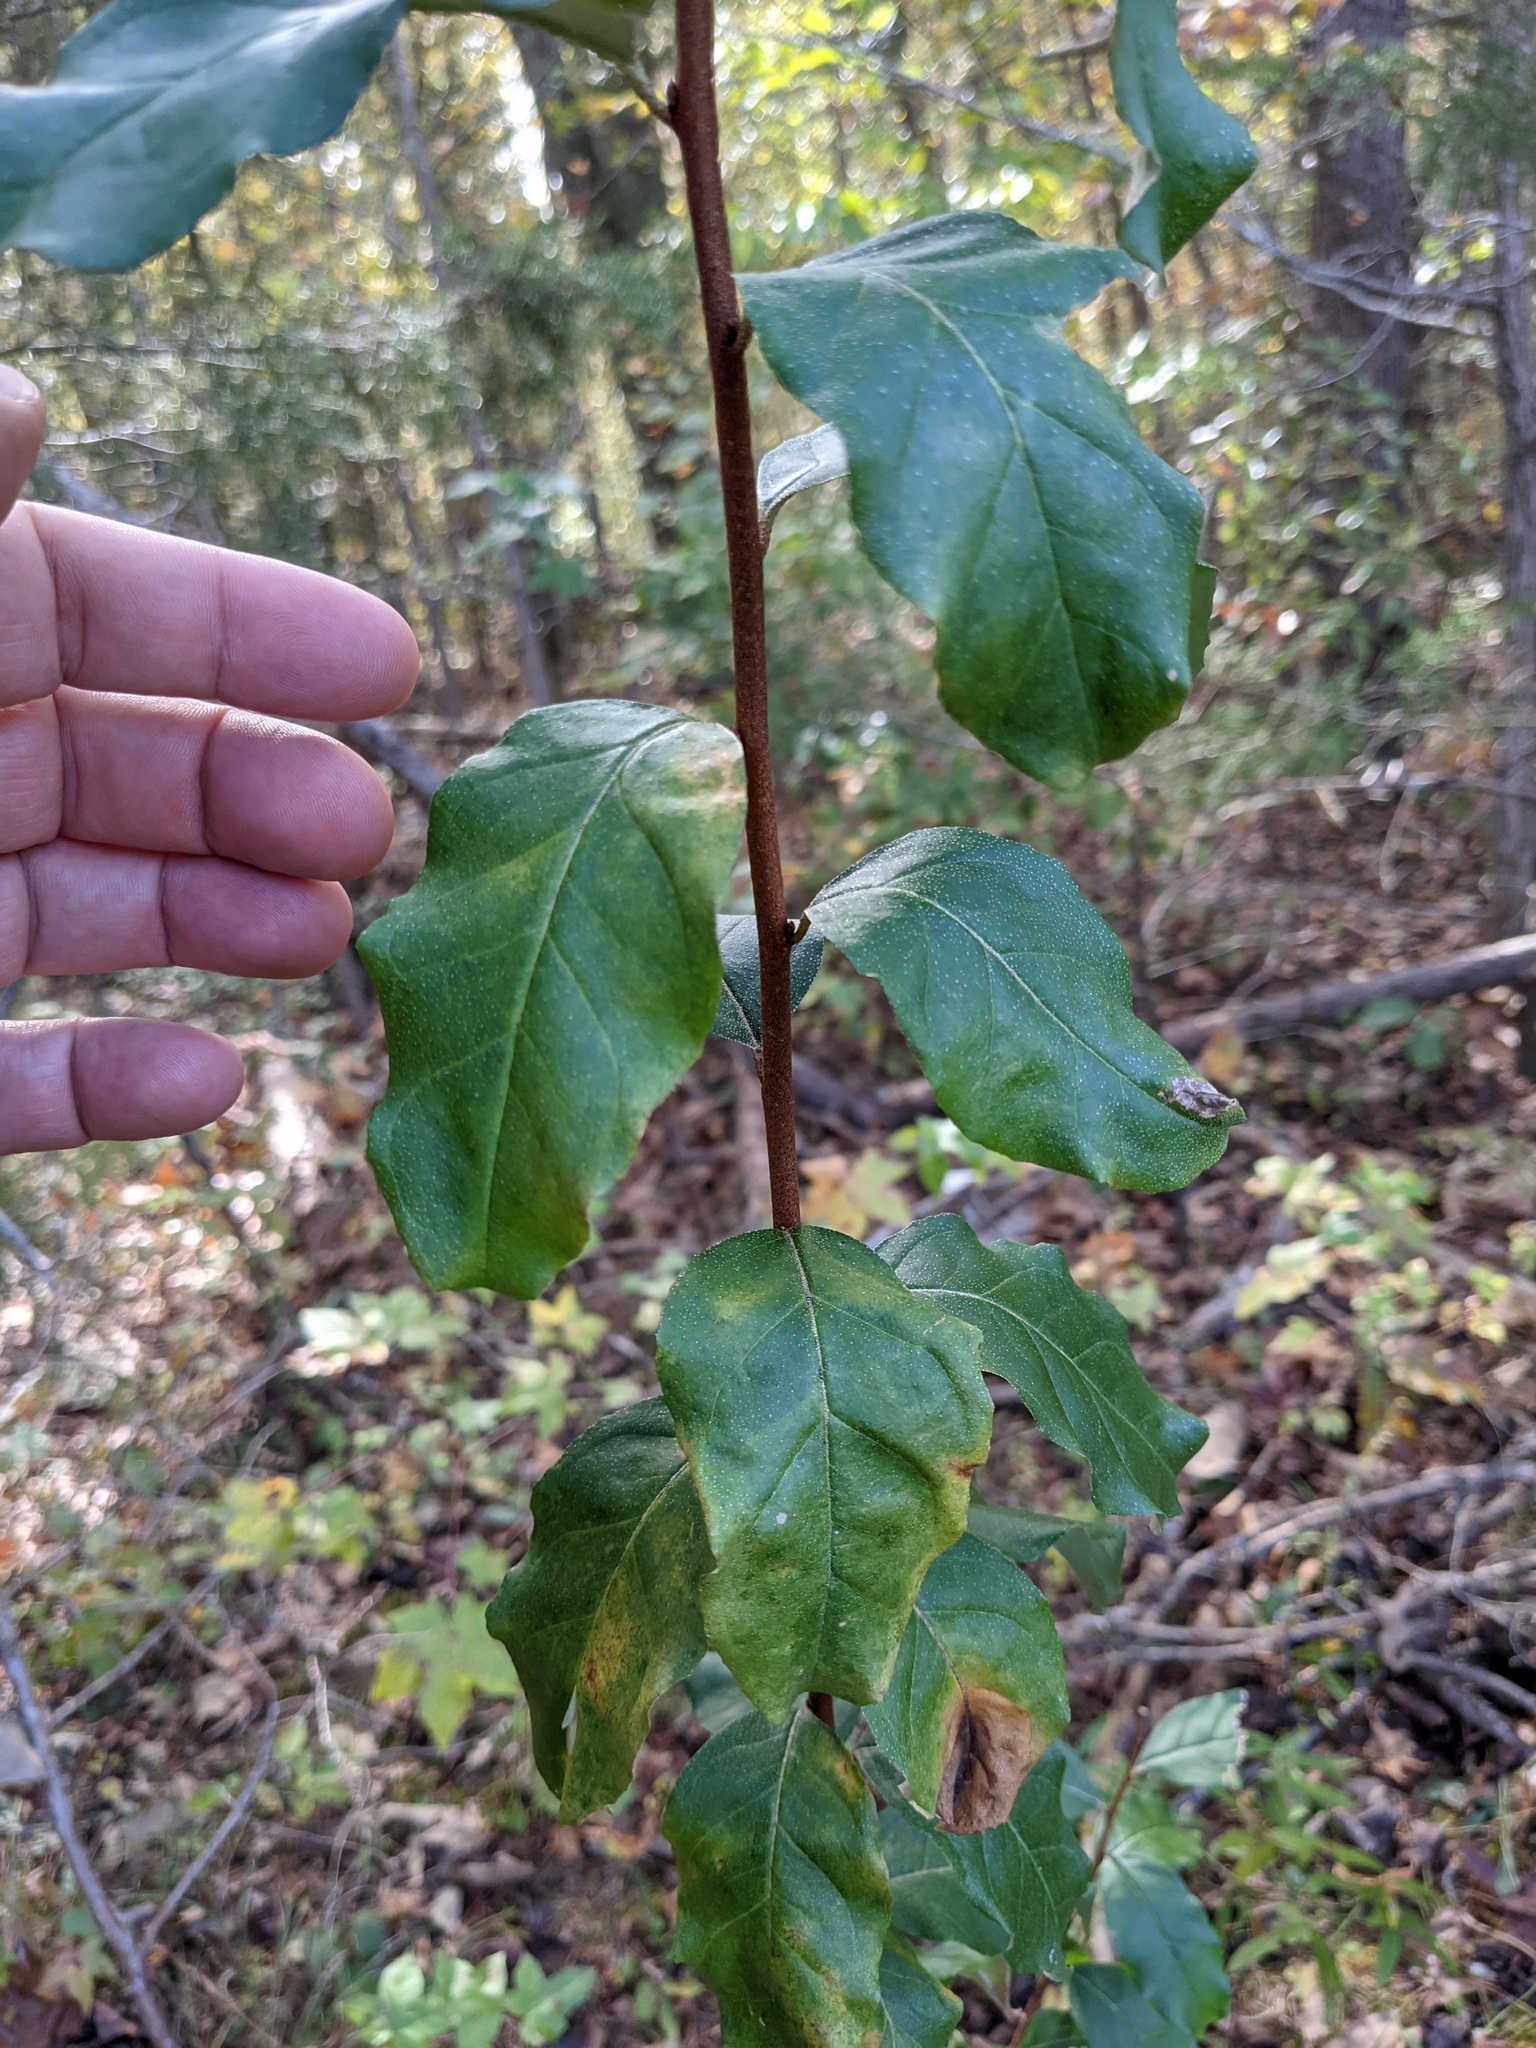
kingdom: Plantae
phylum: Tracheophyta
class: Magnoliopsida
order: Rosales
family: Elaeagnaceae
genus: Elaeagnus
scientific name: Elaeagnus umbellata
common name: Autumn olive
